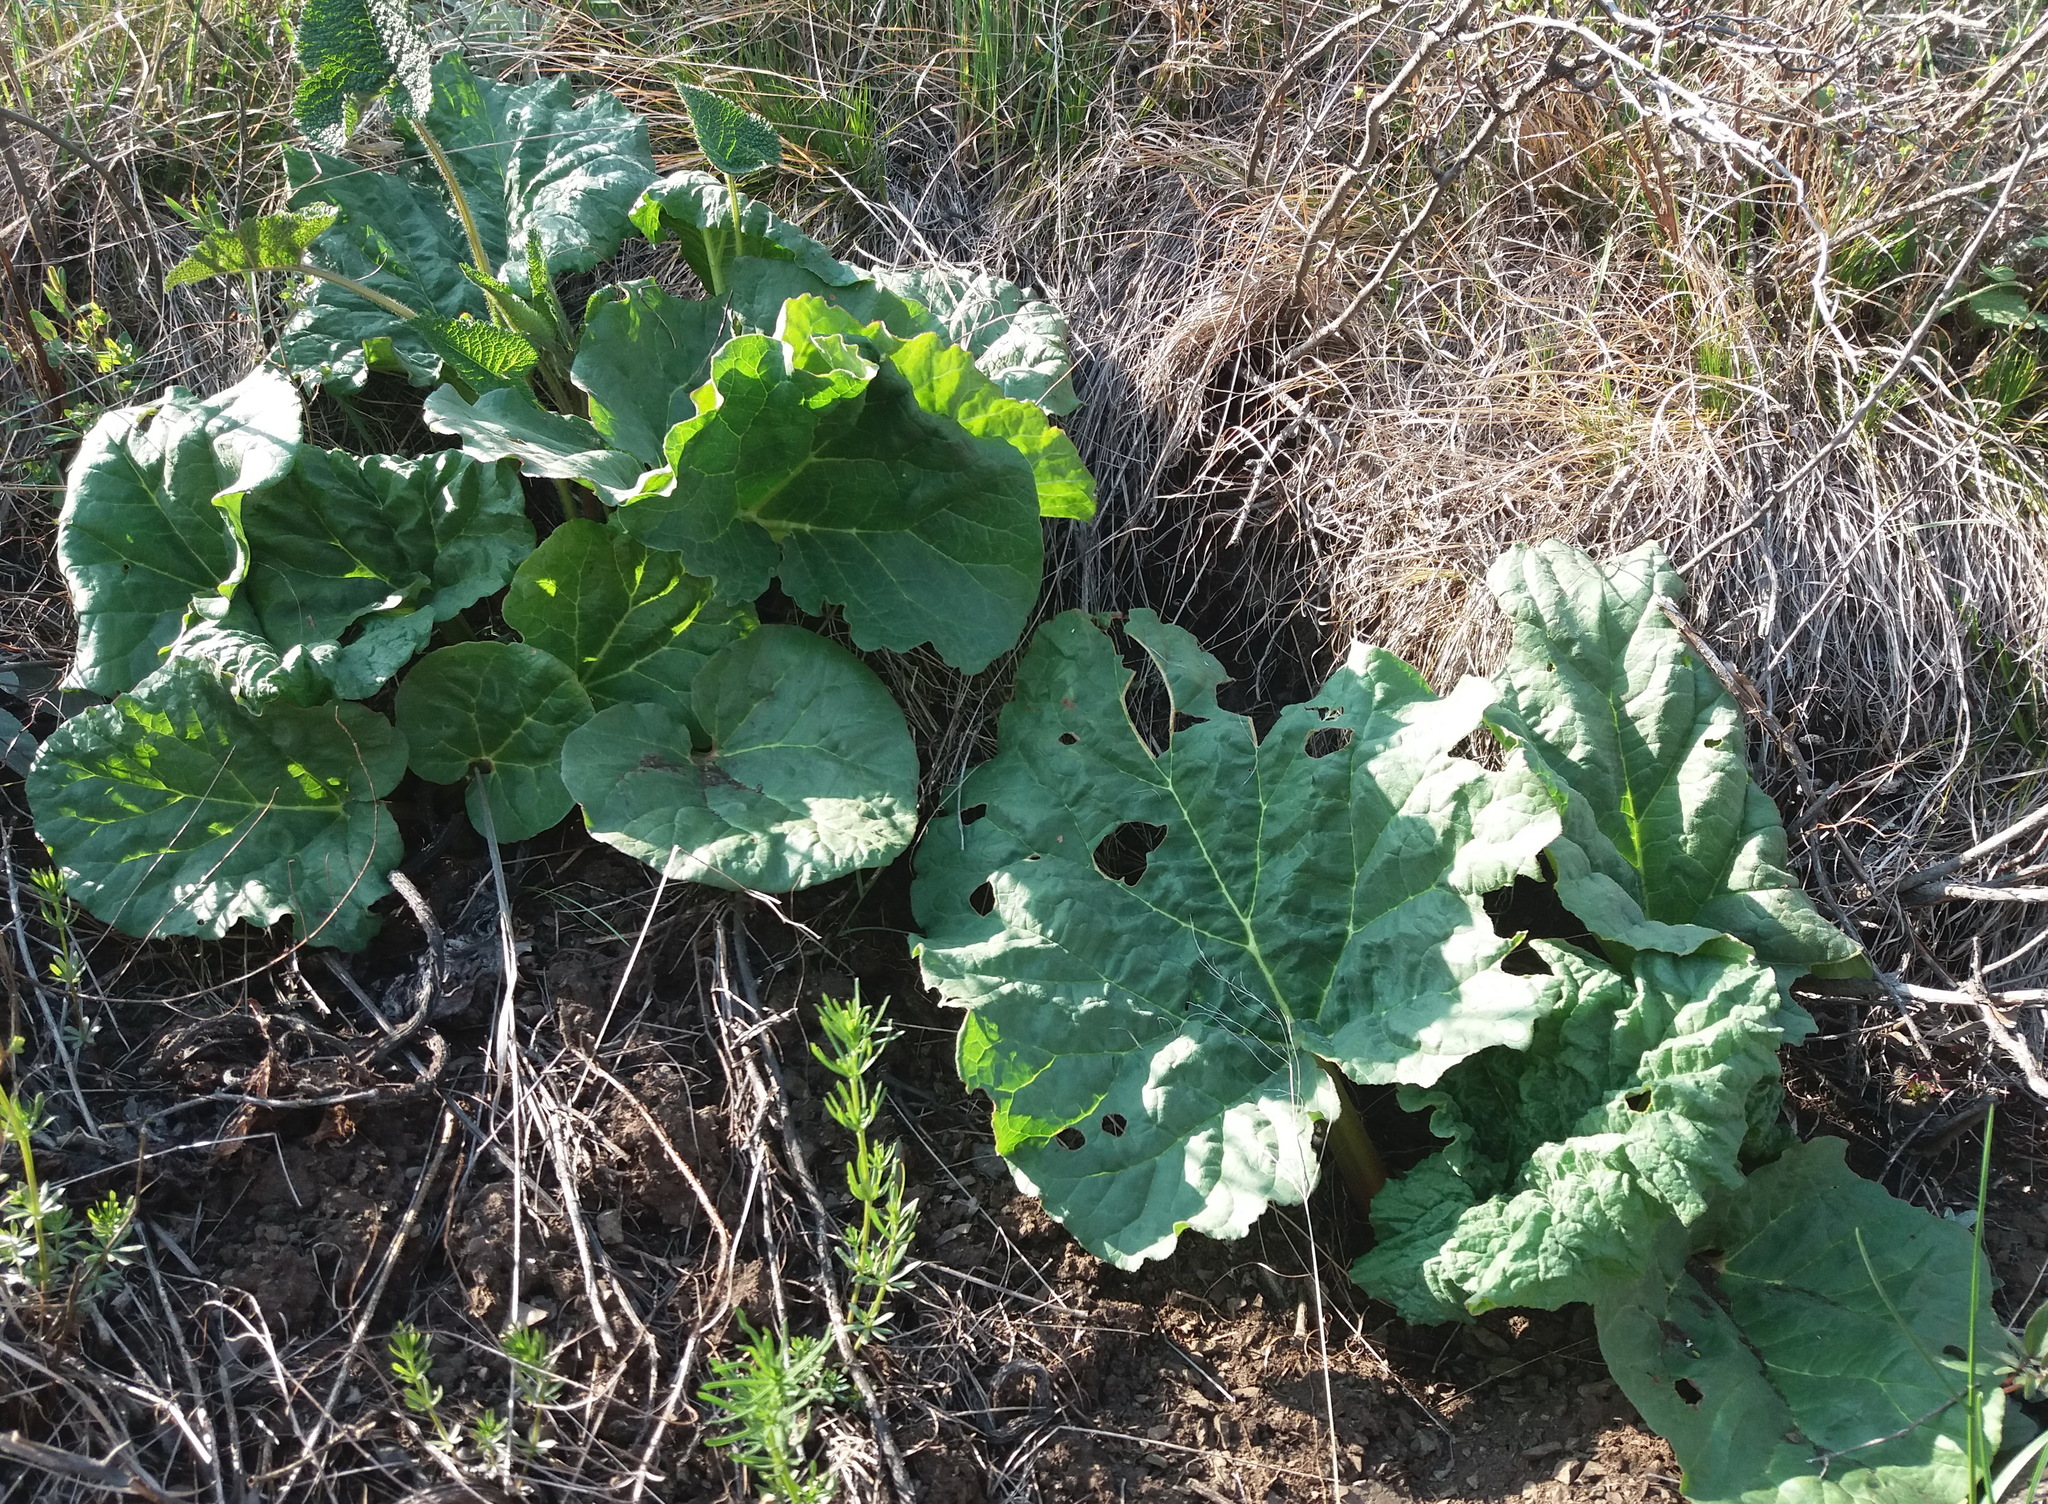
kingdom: Plantae
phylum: Tracheophyta
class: Magnoliopsida
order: Caryophyllales
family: Polygonaceae
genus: Rheum
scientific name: Rheum compactum
